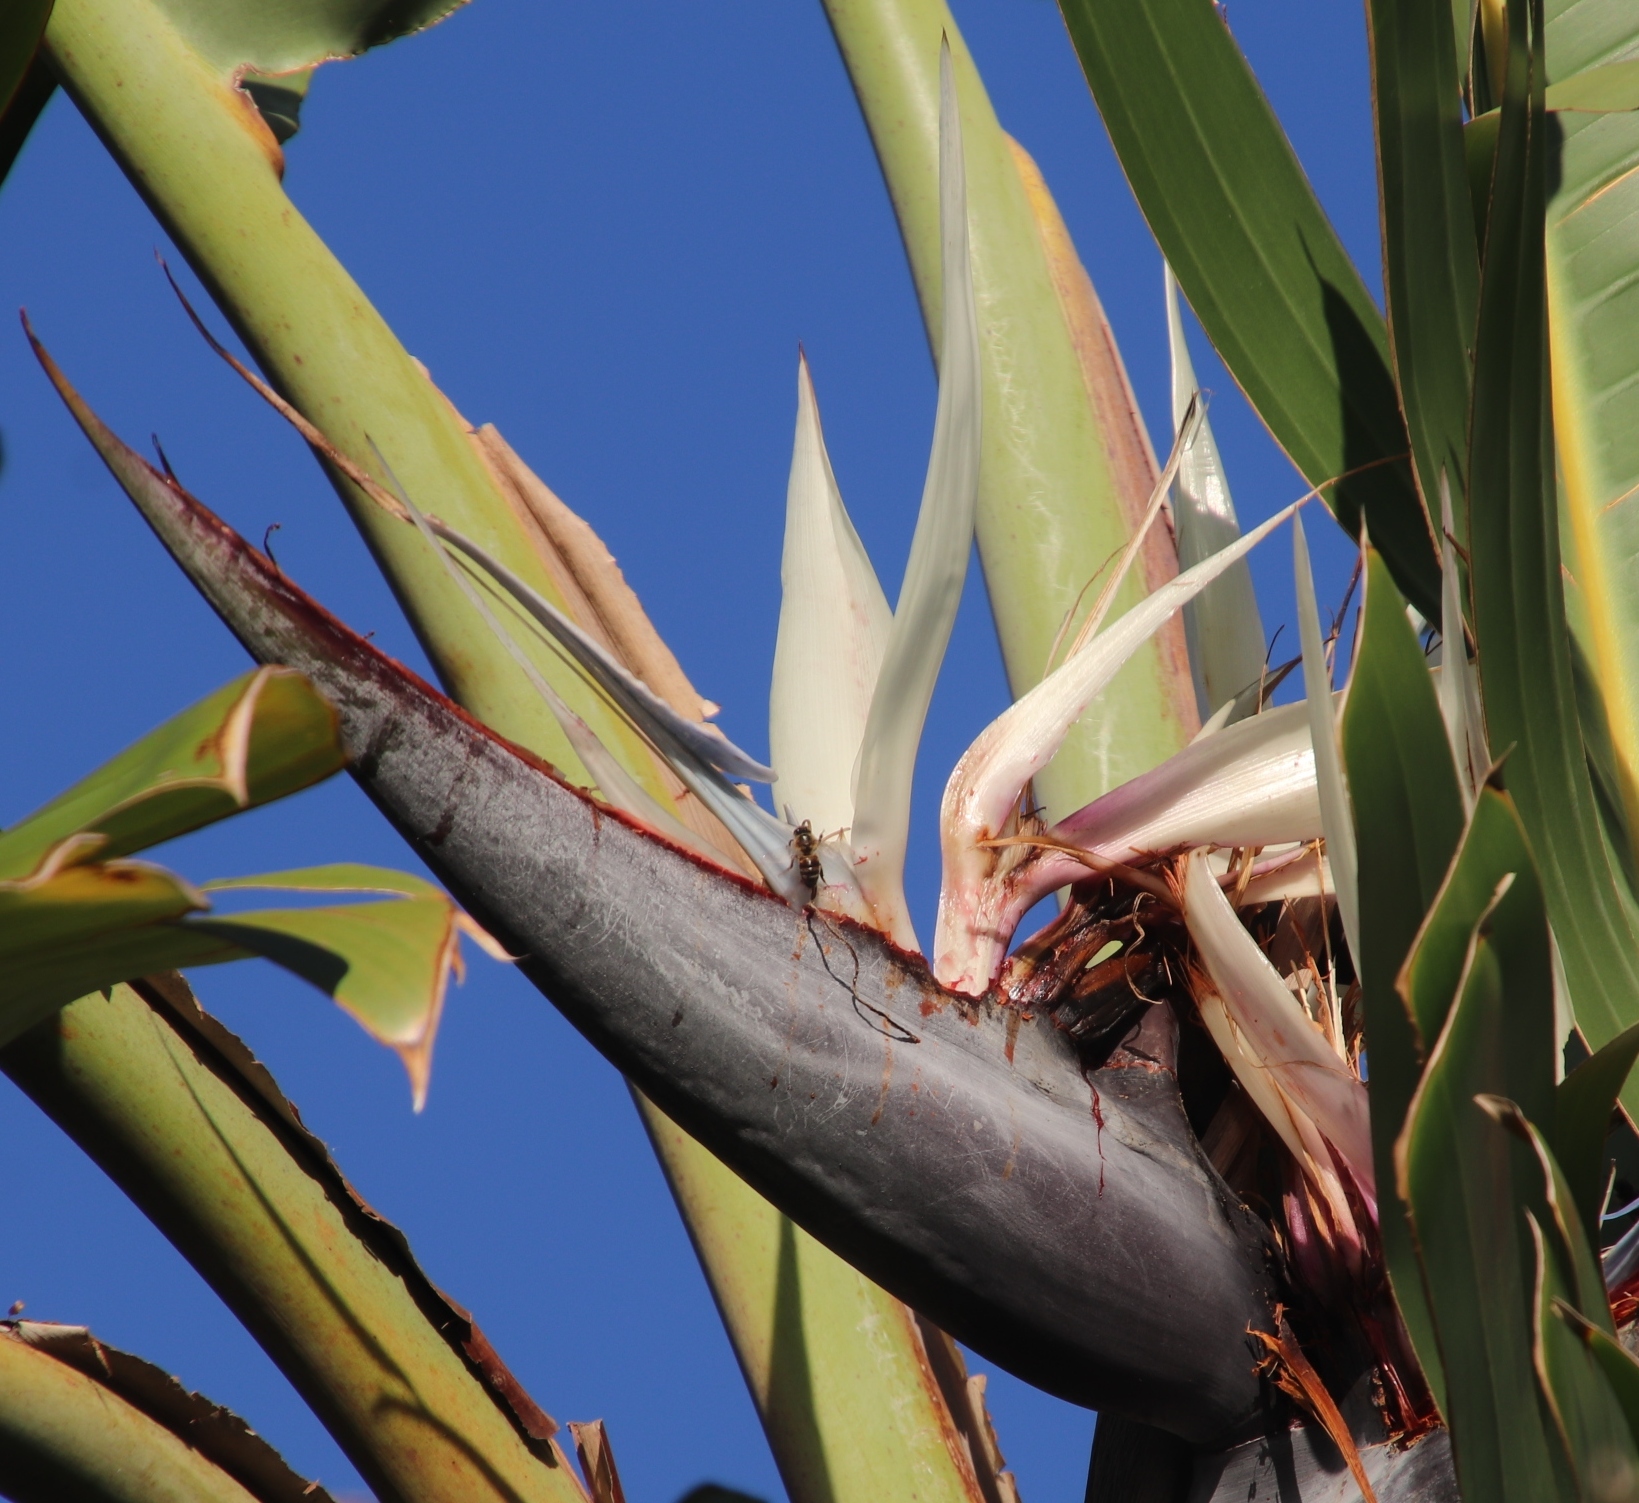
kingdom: Animalia
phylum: Arthropoda
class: Insecta
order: Hymenoptera
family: Apidae
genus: Apis
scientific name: Apis mellifera
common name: Honey bee
